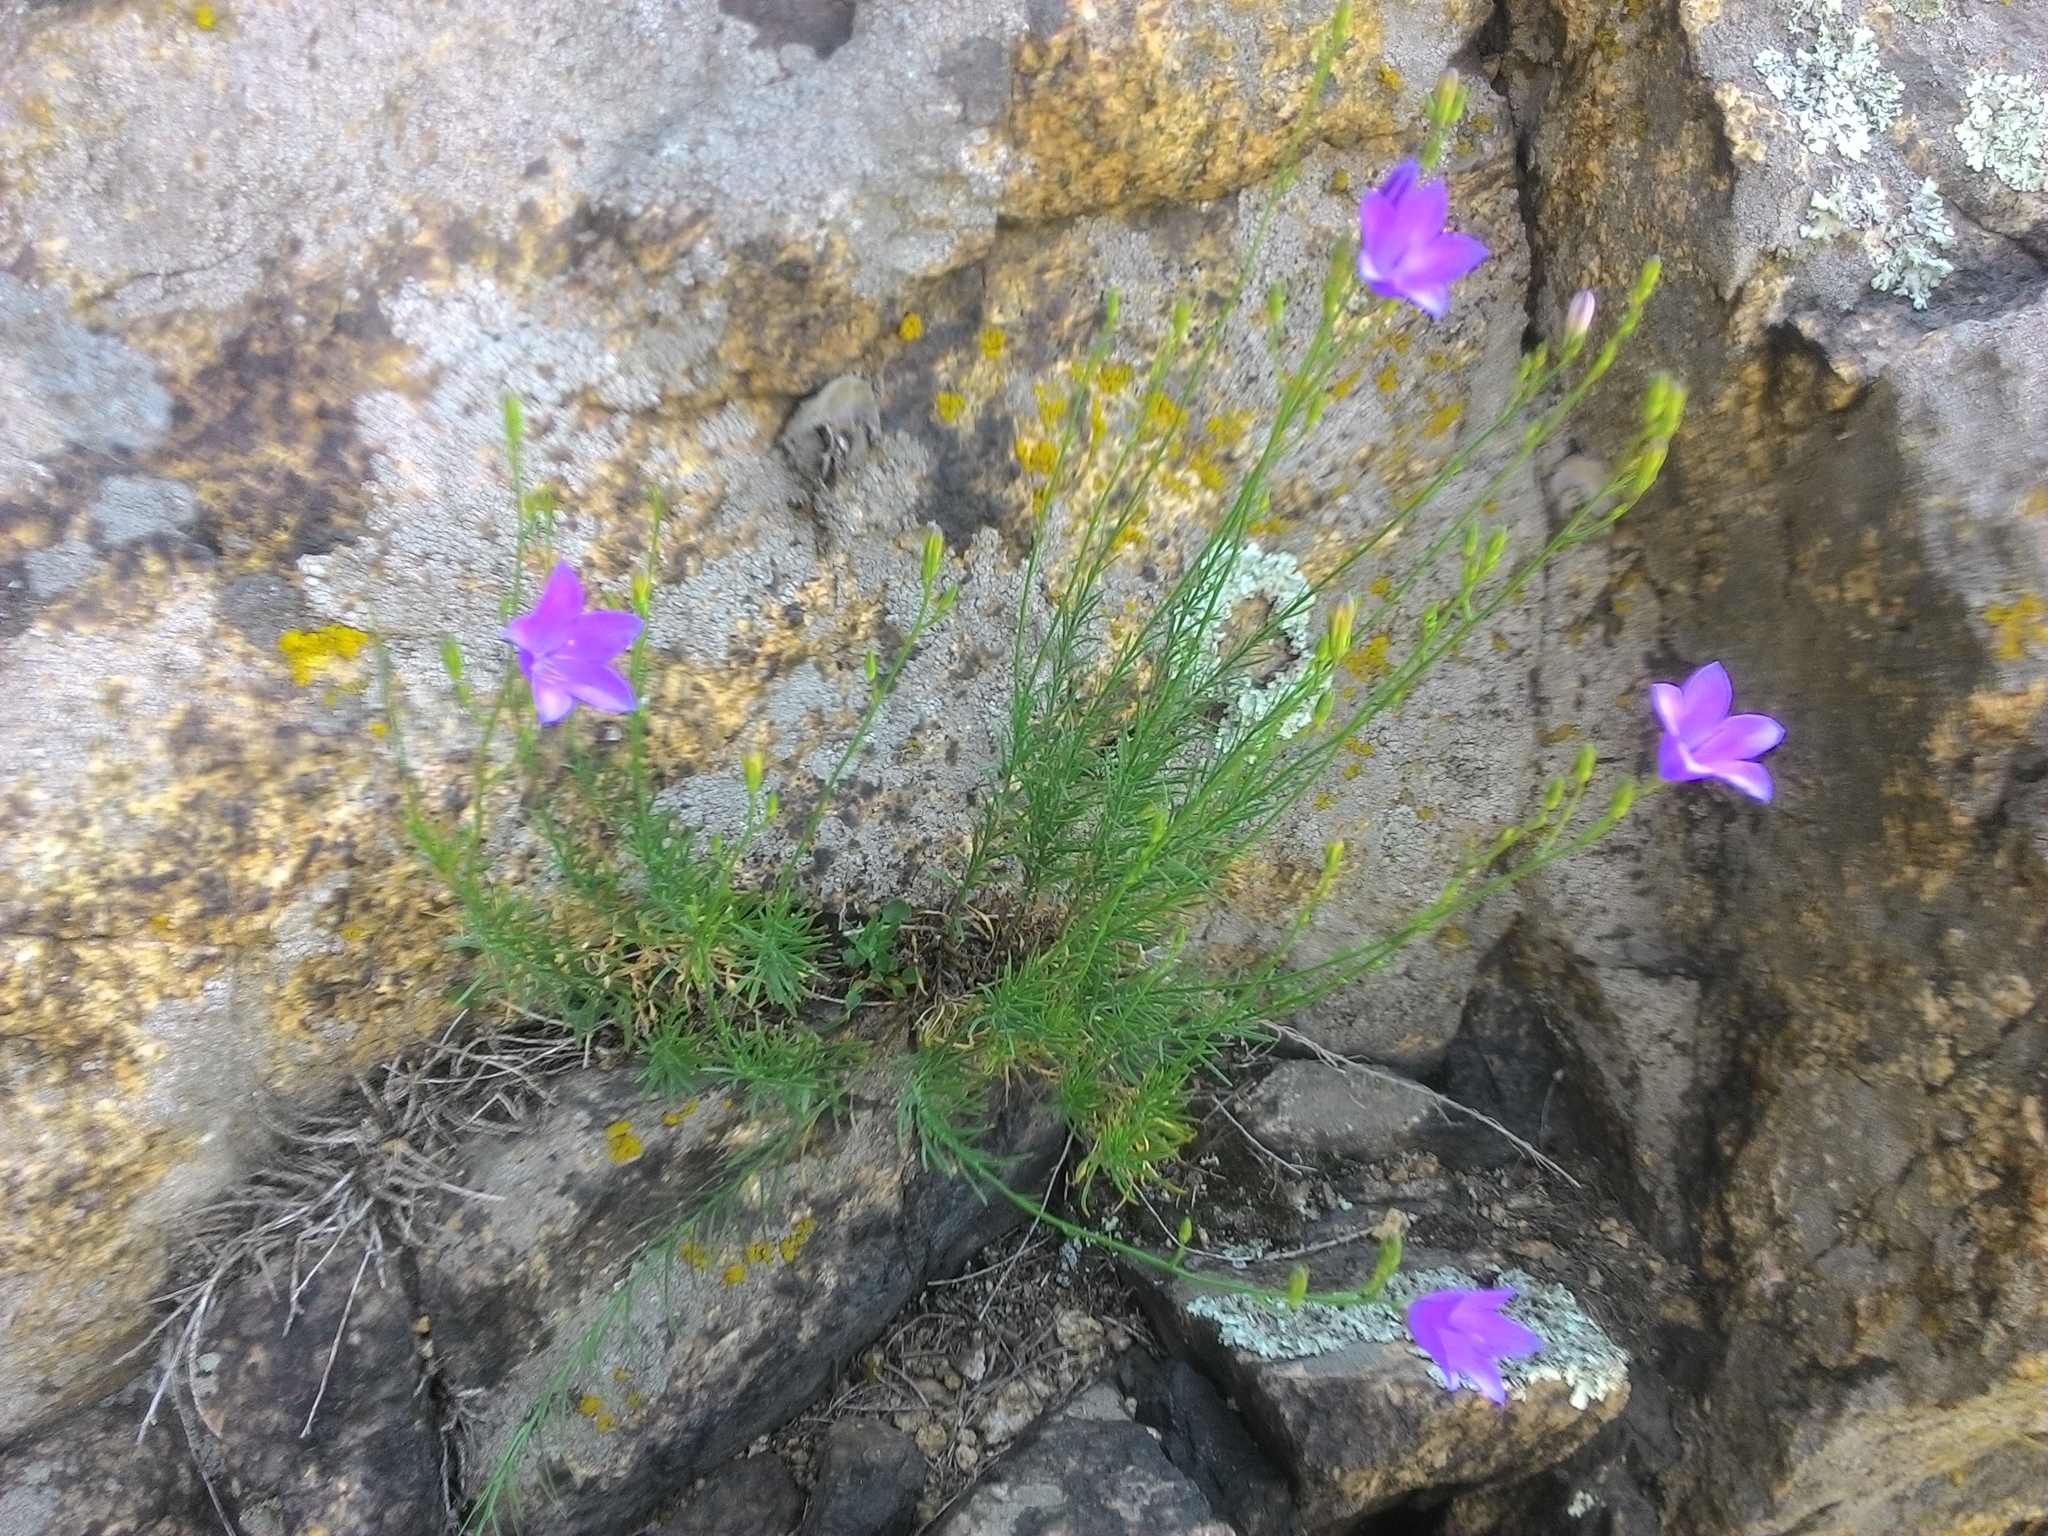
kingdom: Plantae
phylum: Tracheophyta
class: Magnoliopsida
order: Asterales
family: Campanulaceae
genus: Campanula
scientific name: Campanula romanica
